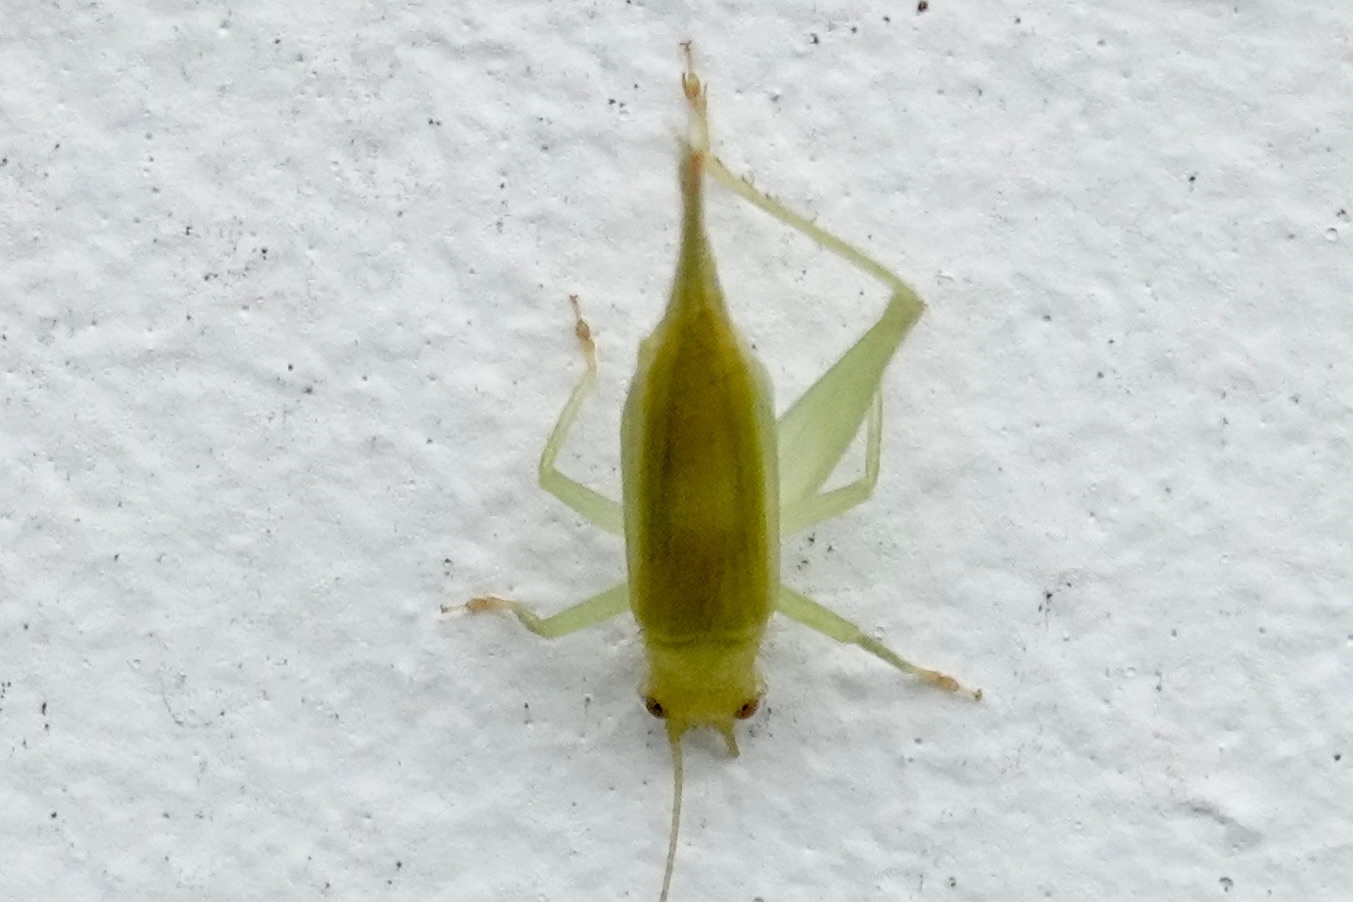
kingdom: Animalia
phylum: Arthropoda
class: Insecta
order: Orthoptera
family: Trigonidiidae
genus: Cyrtoxipha
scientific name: Cyrtoxipha columbiana
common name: Columbian trig
